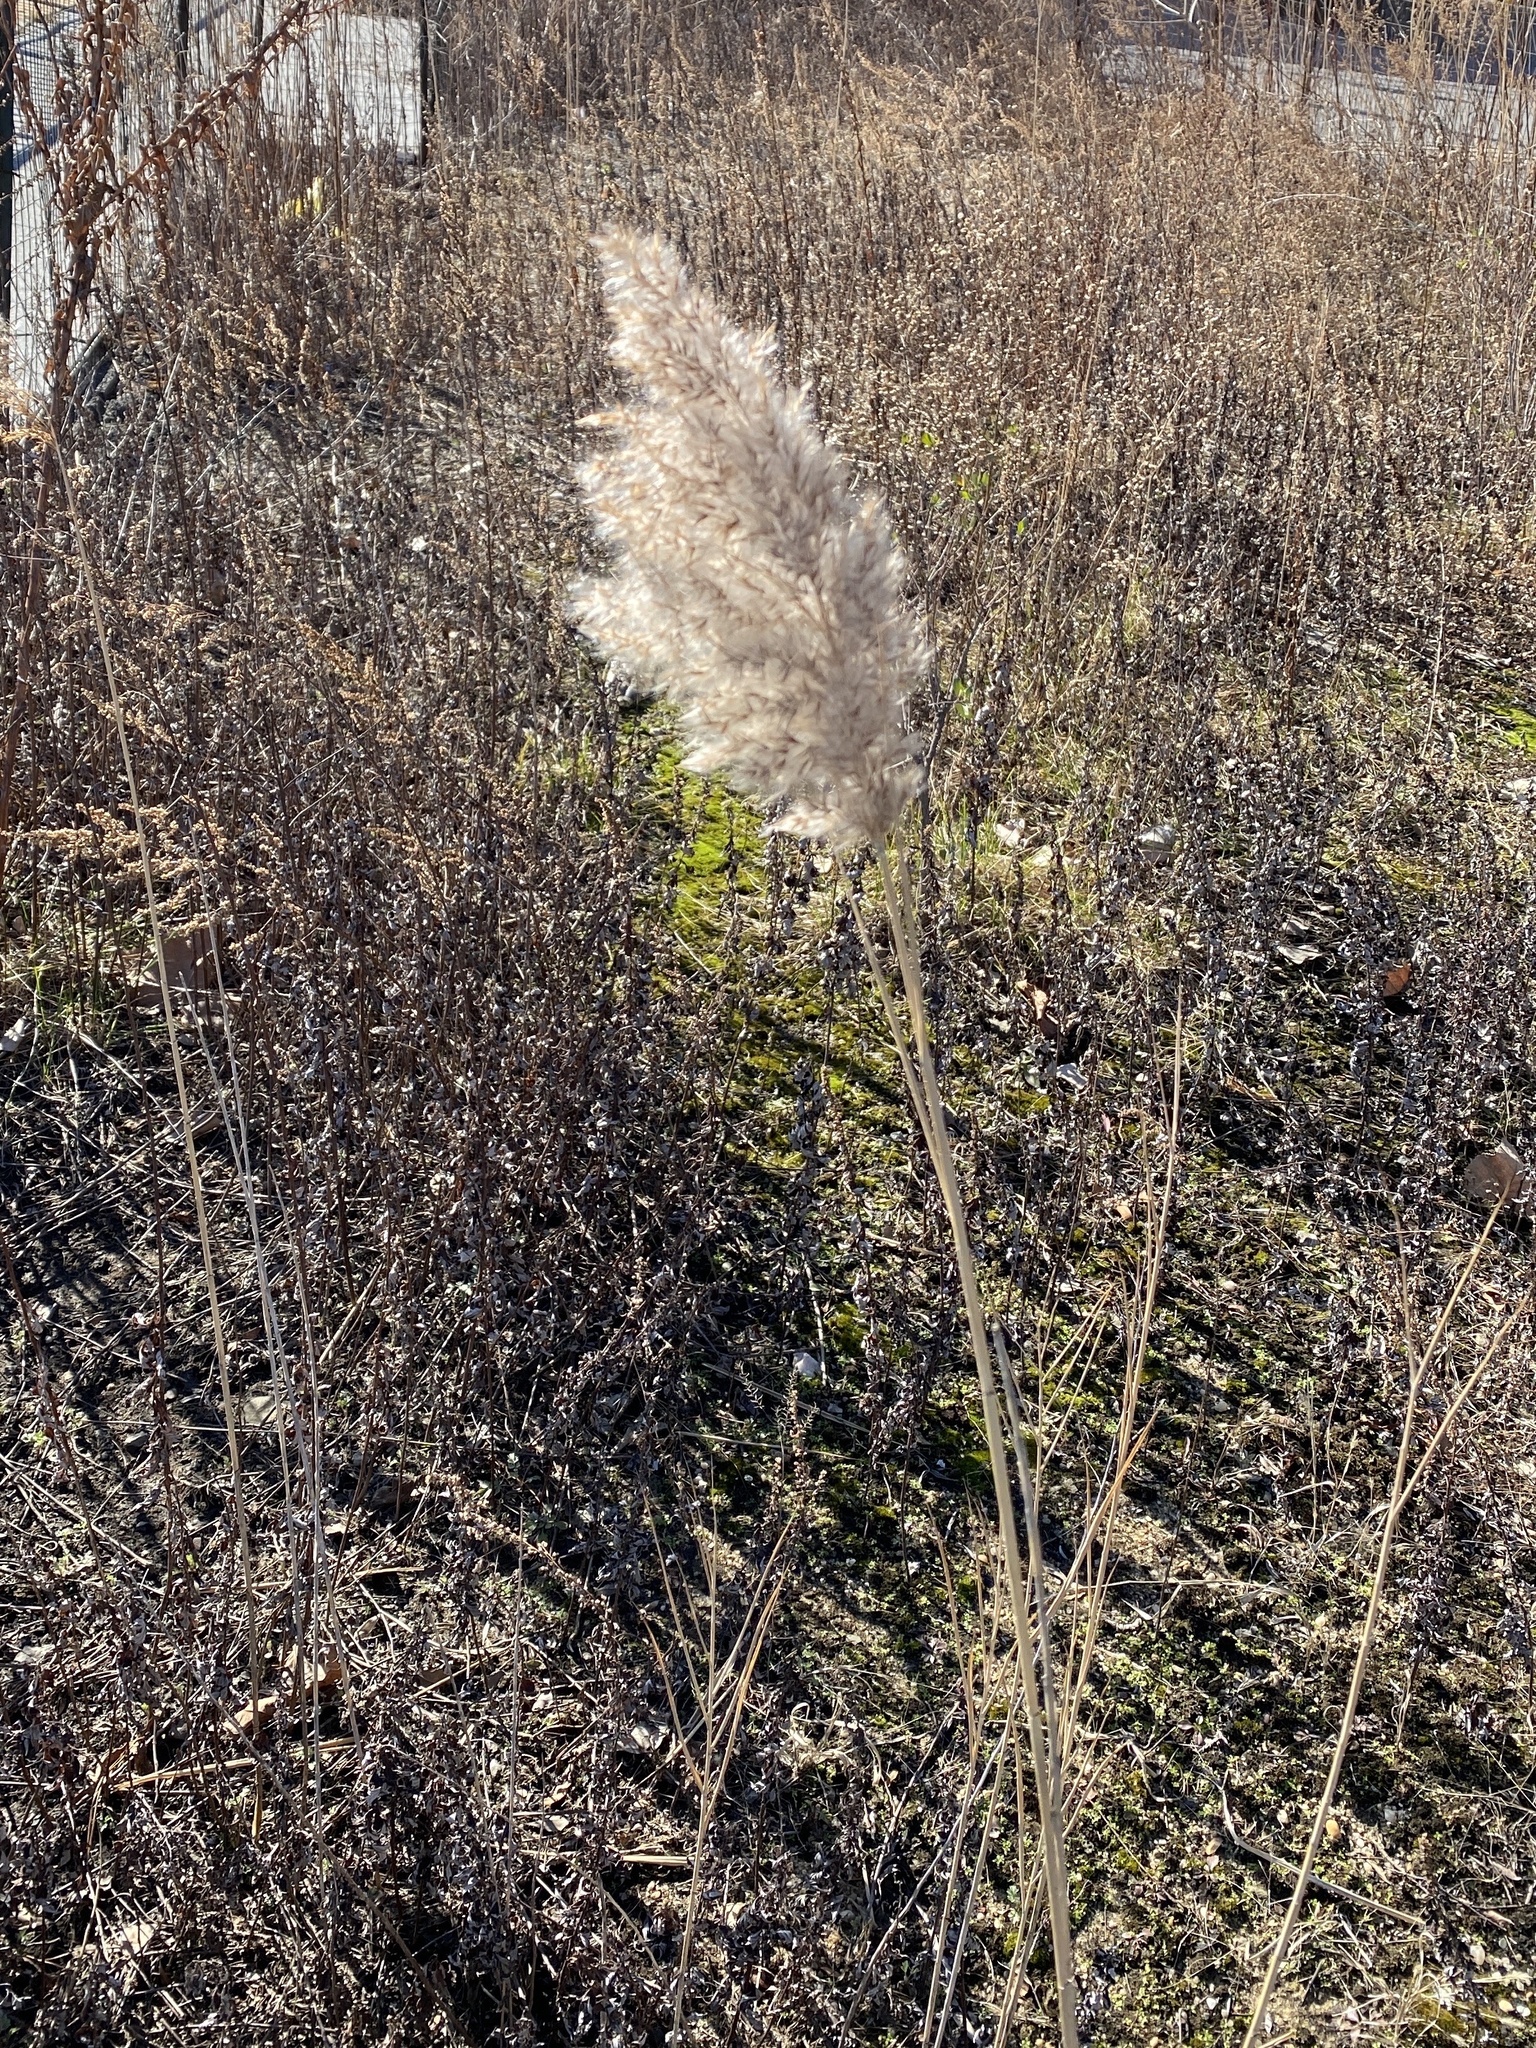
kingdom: Plantae
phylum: Tracheophyta
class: Liliopsida
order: Poales
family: Poaceae
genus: Phragmites
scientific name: Phragmites australis
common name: Common reed
